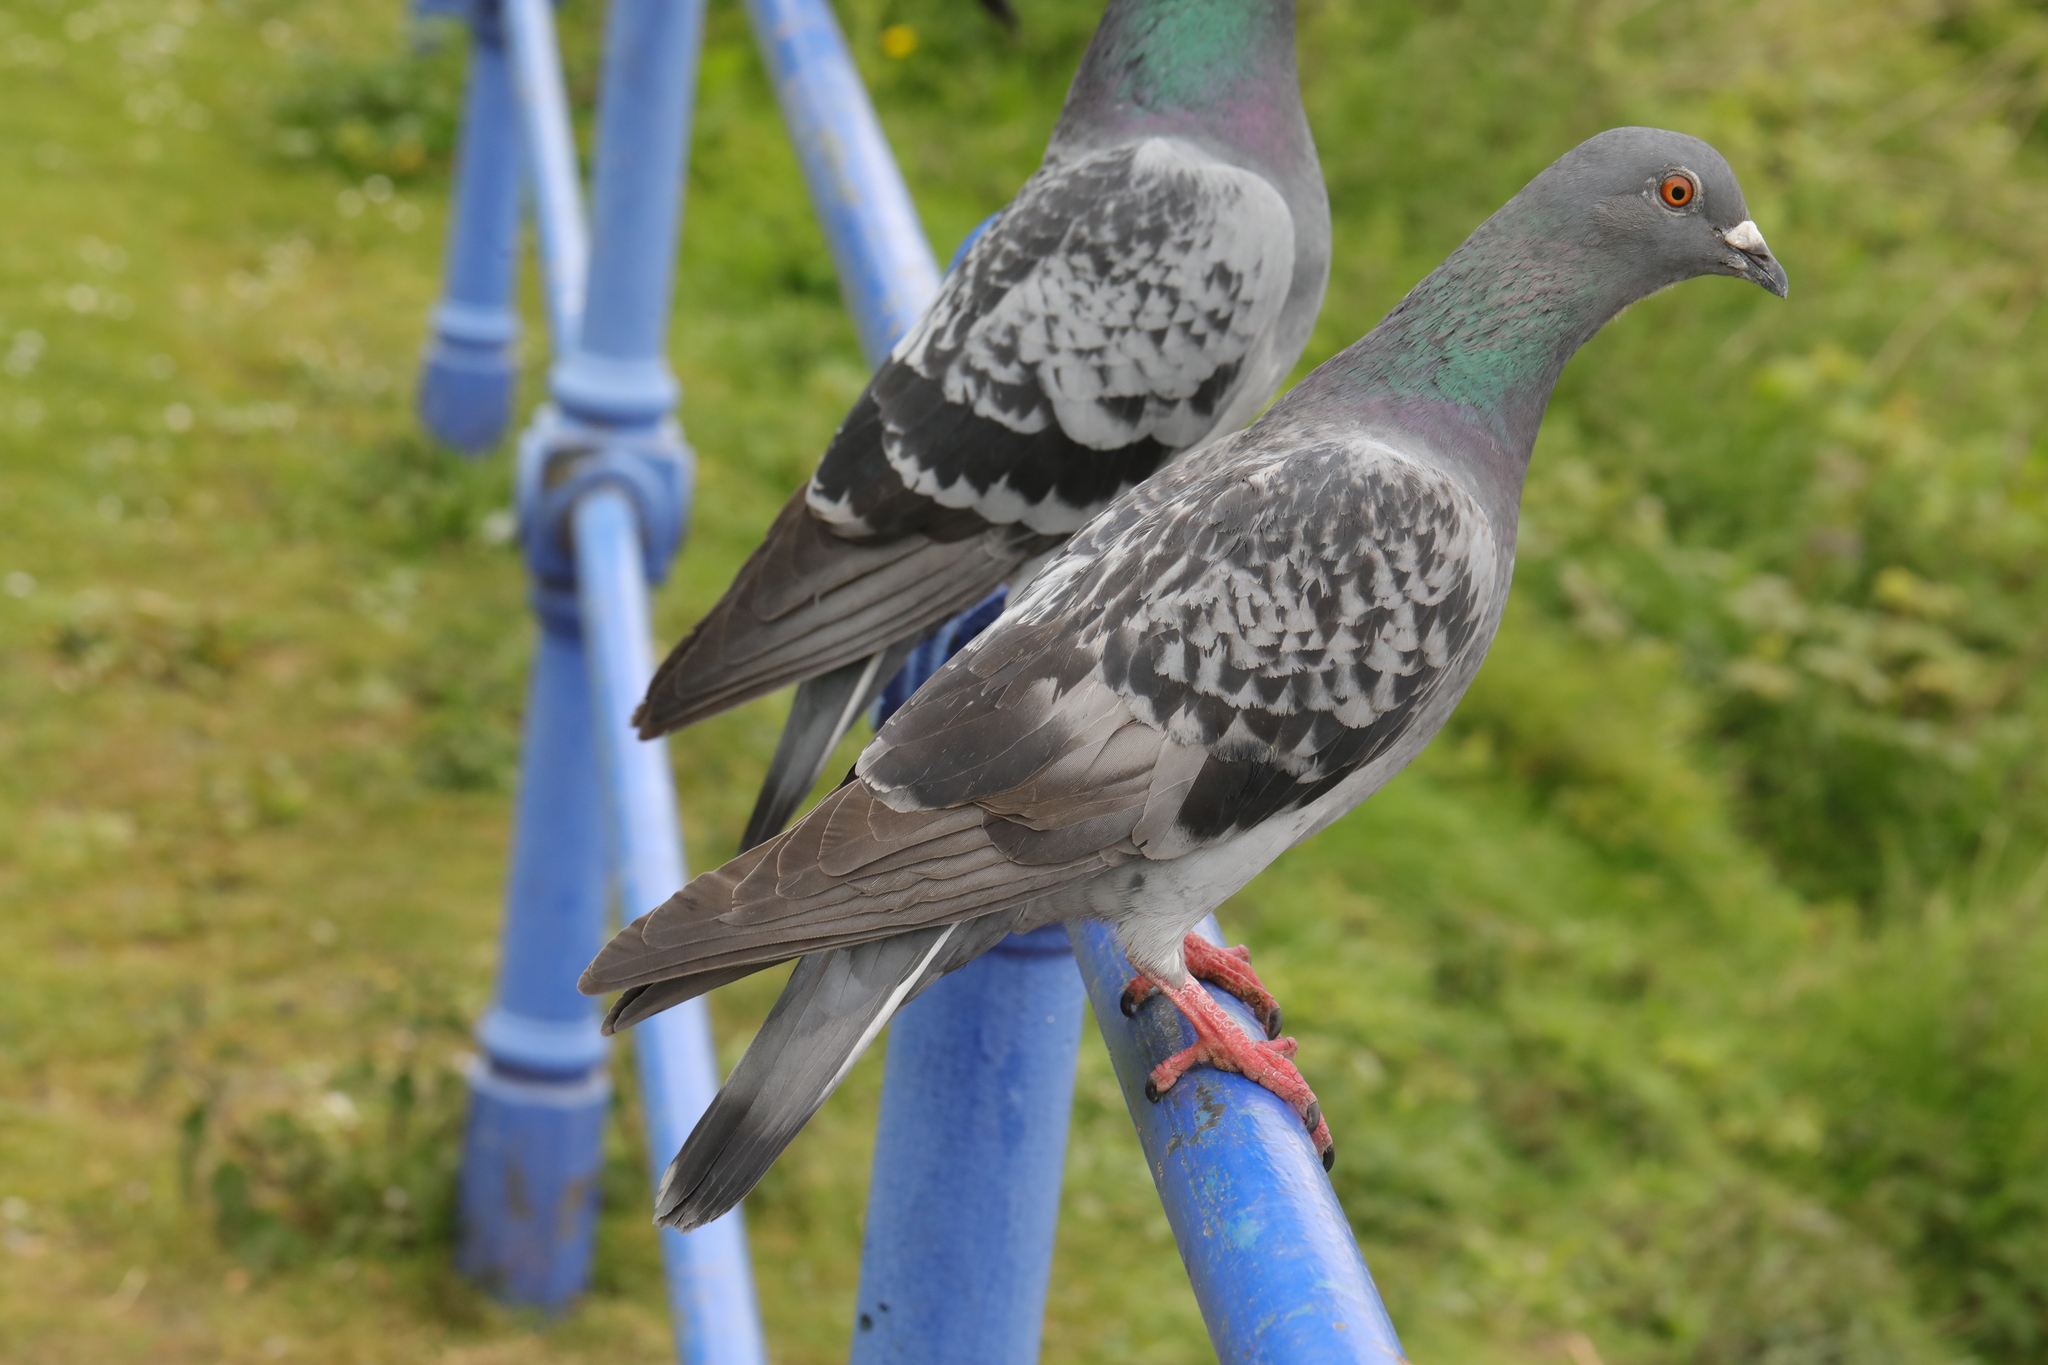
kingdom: Animalia
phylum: Chordata
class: Aves
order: Columbiformes
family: Columbidae
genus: Columba
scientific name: Columba livia
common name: Rock pigeon
